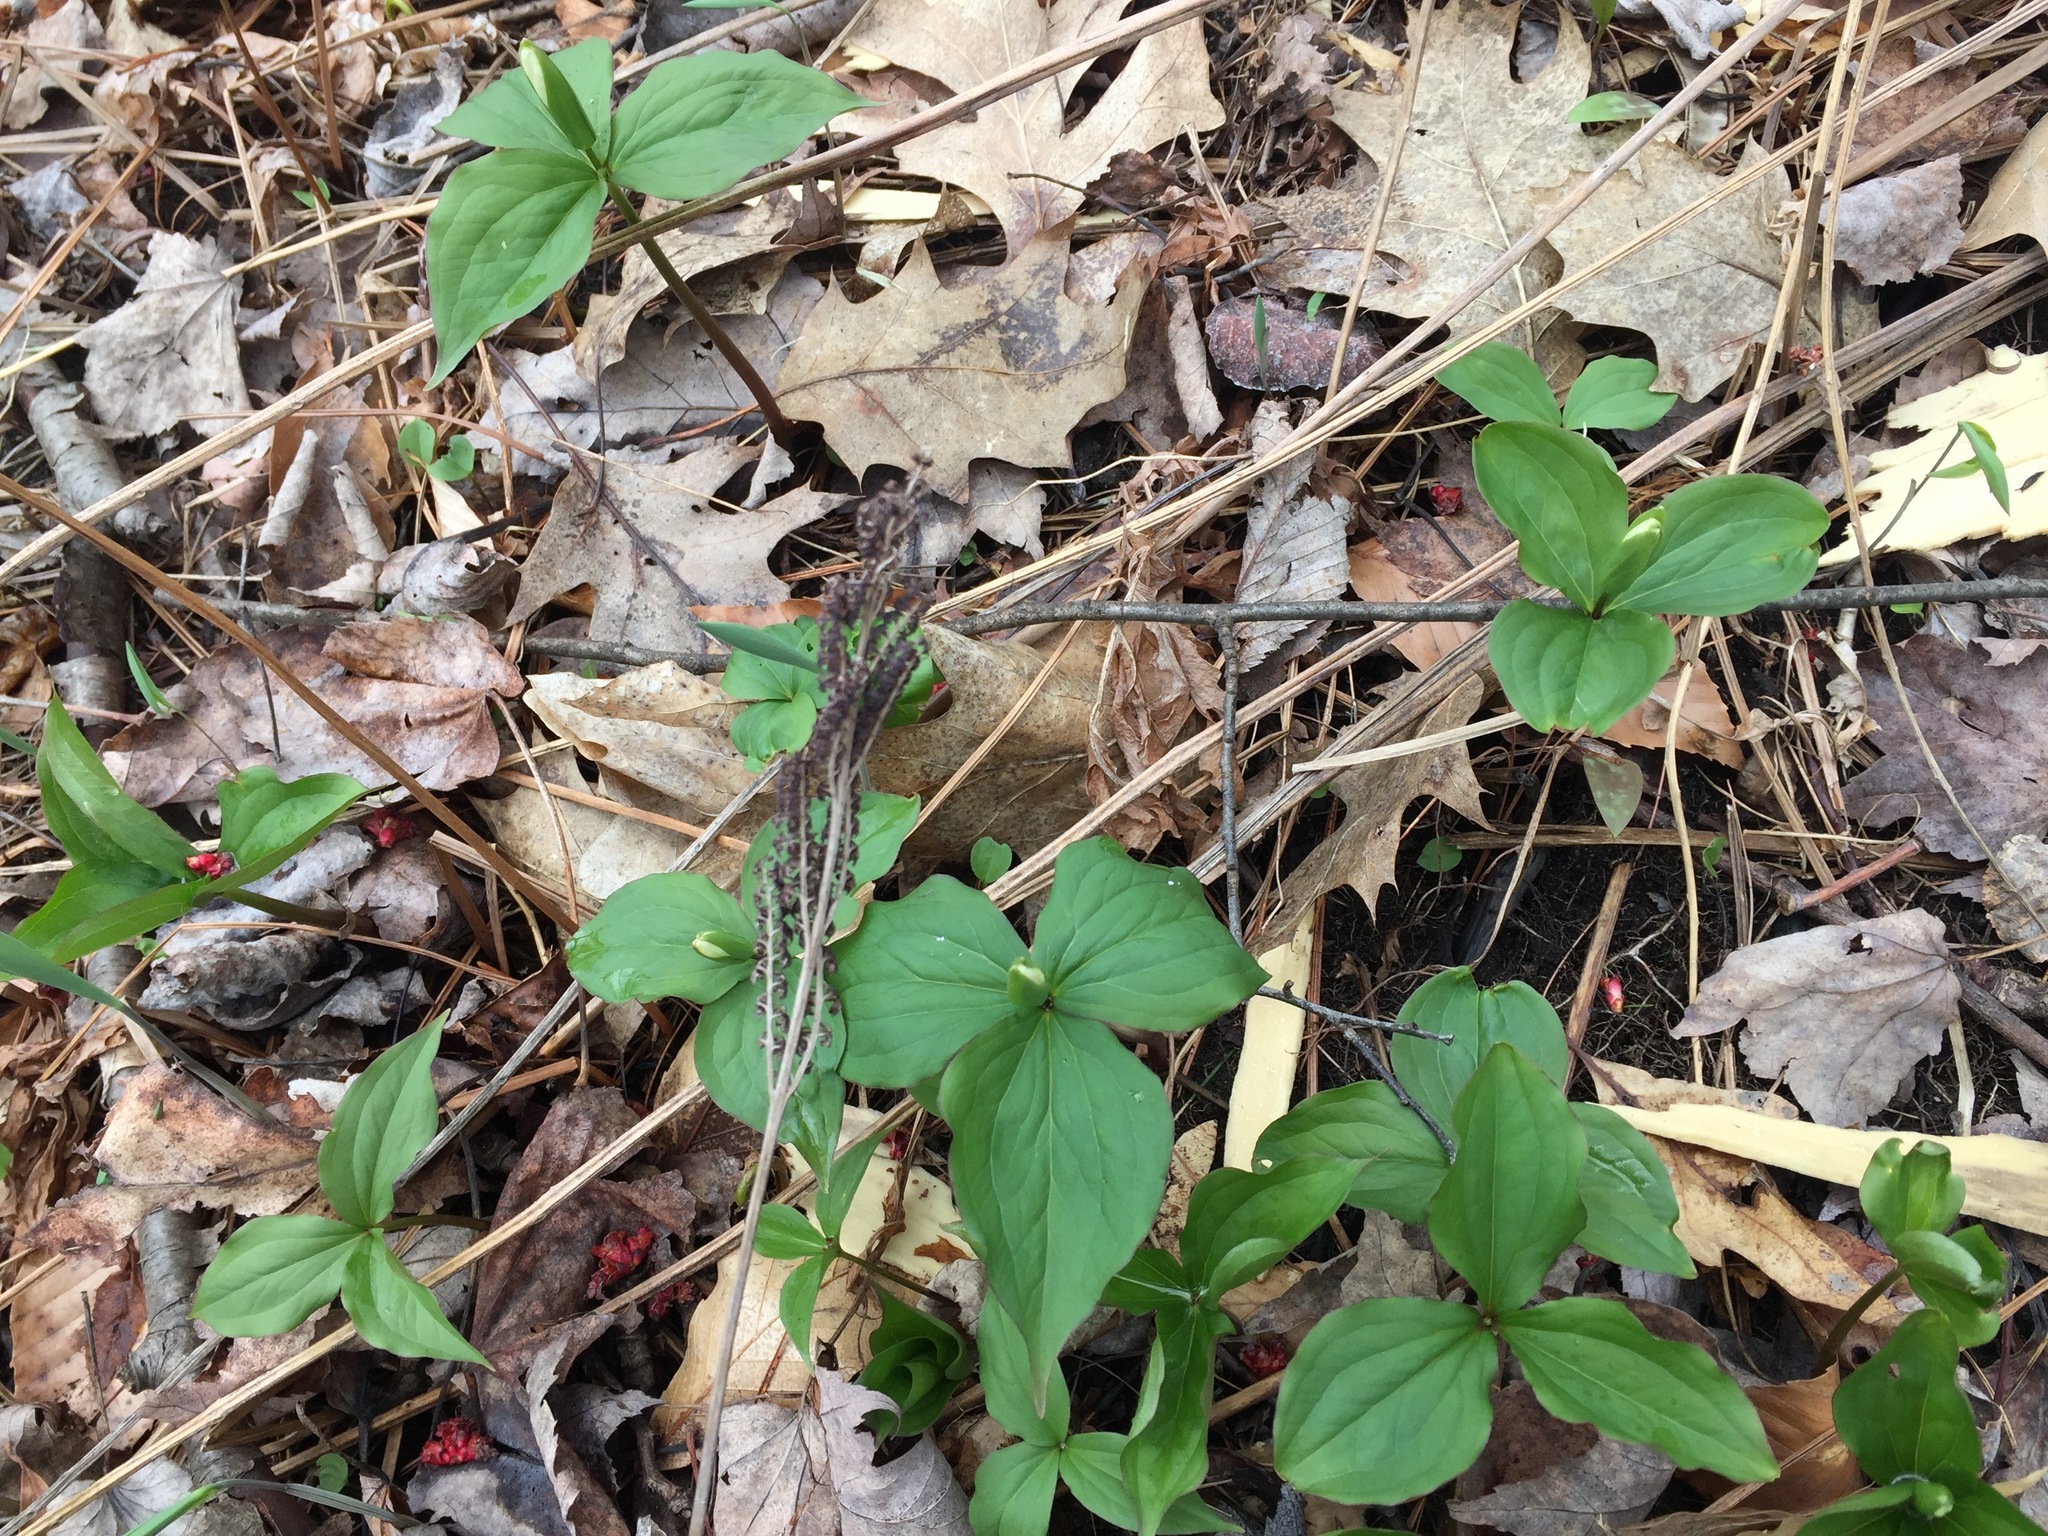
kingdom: Plantae
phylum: Tracheophyta
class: Liliopsida
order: Liliales
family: Melanthiaceae
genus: Trillium
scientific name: Trillium grandiflorum
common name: Great white trillium
